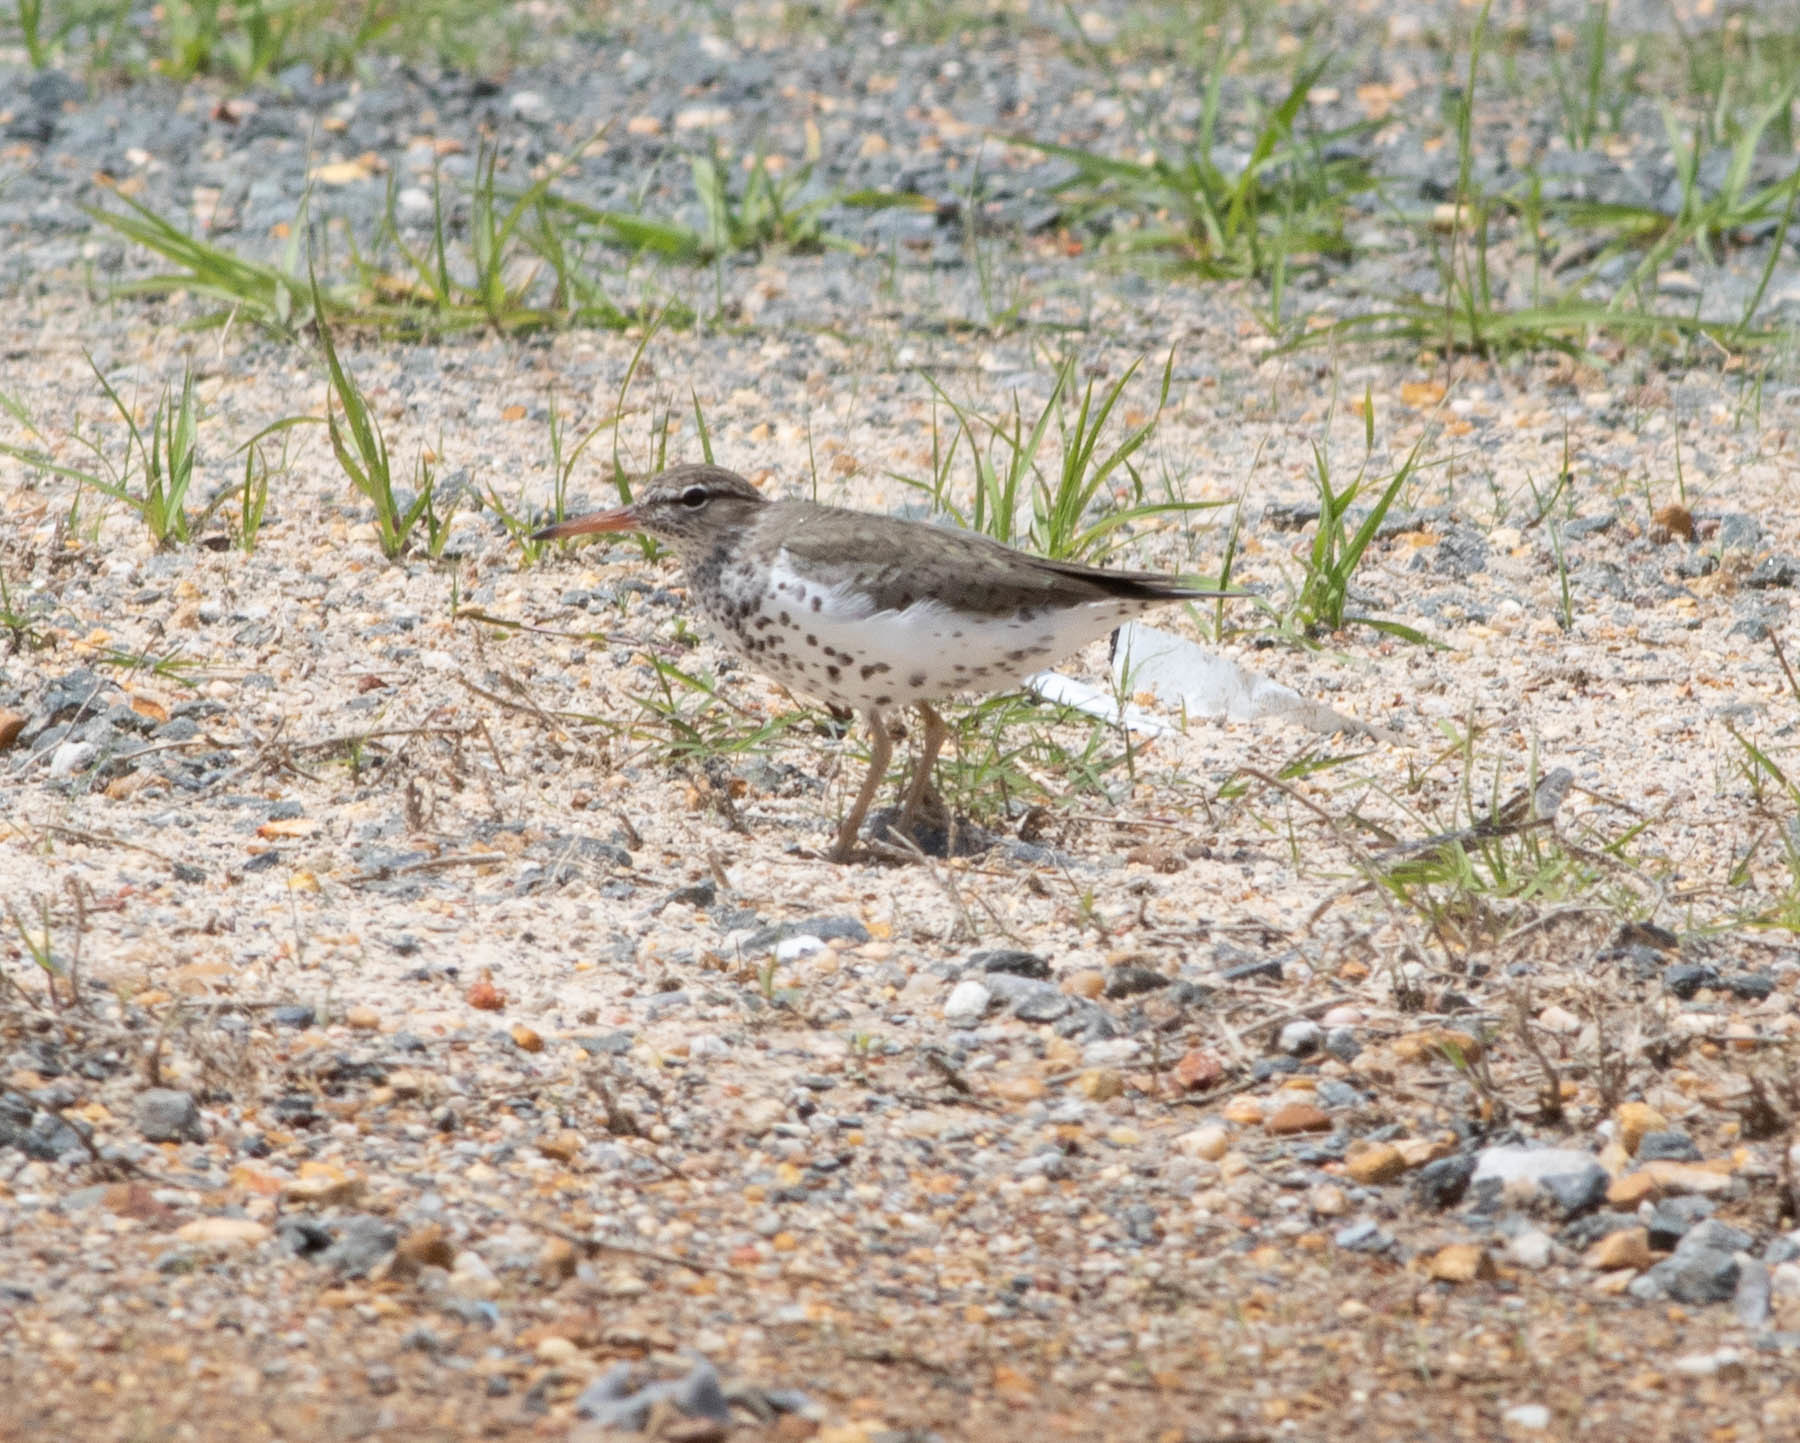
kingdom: Animalia
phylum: Chordata
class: Aves
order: Charadriiformes
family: Scolopacidae
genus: Actitis
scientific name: Actitis macularius
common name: Spotted sandpiper
